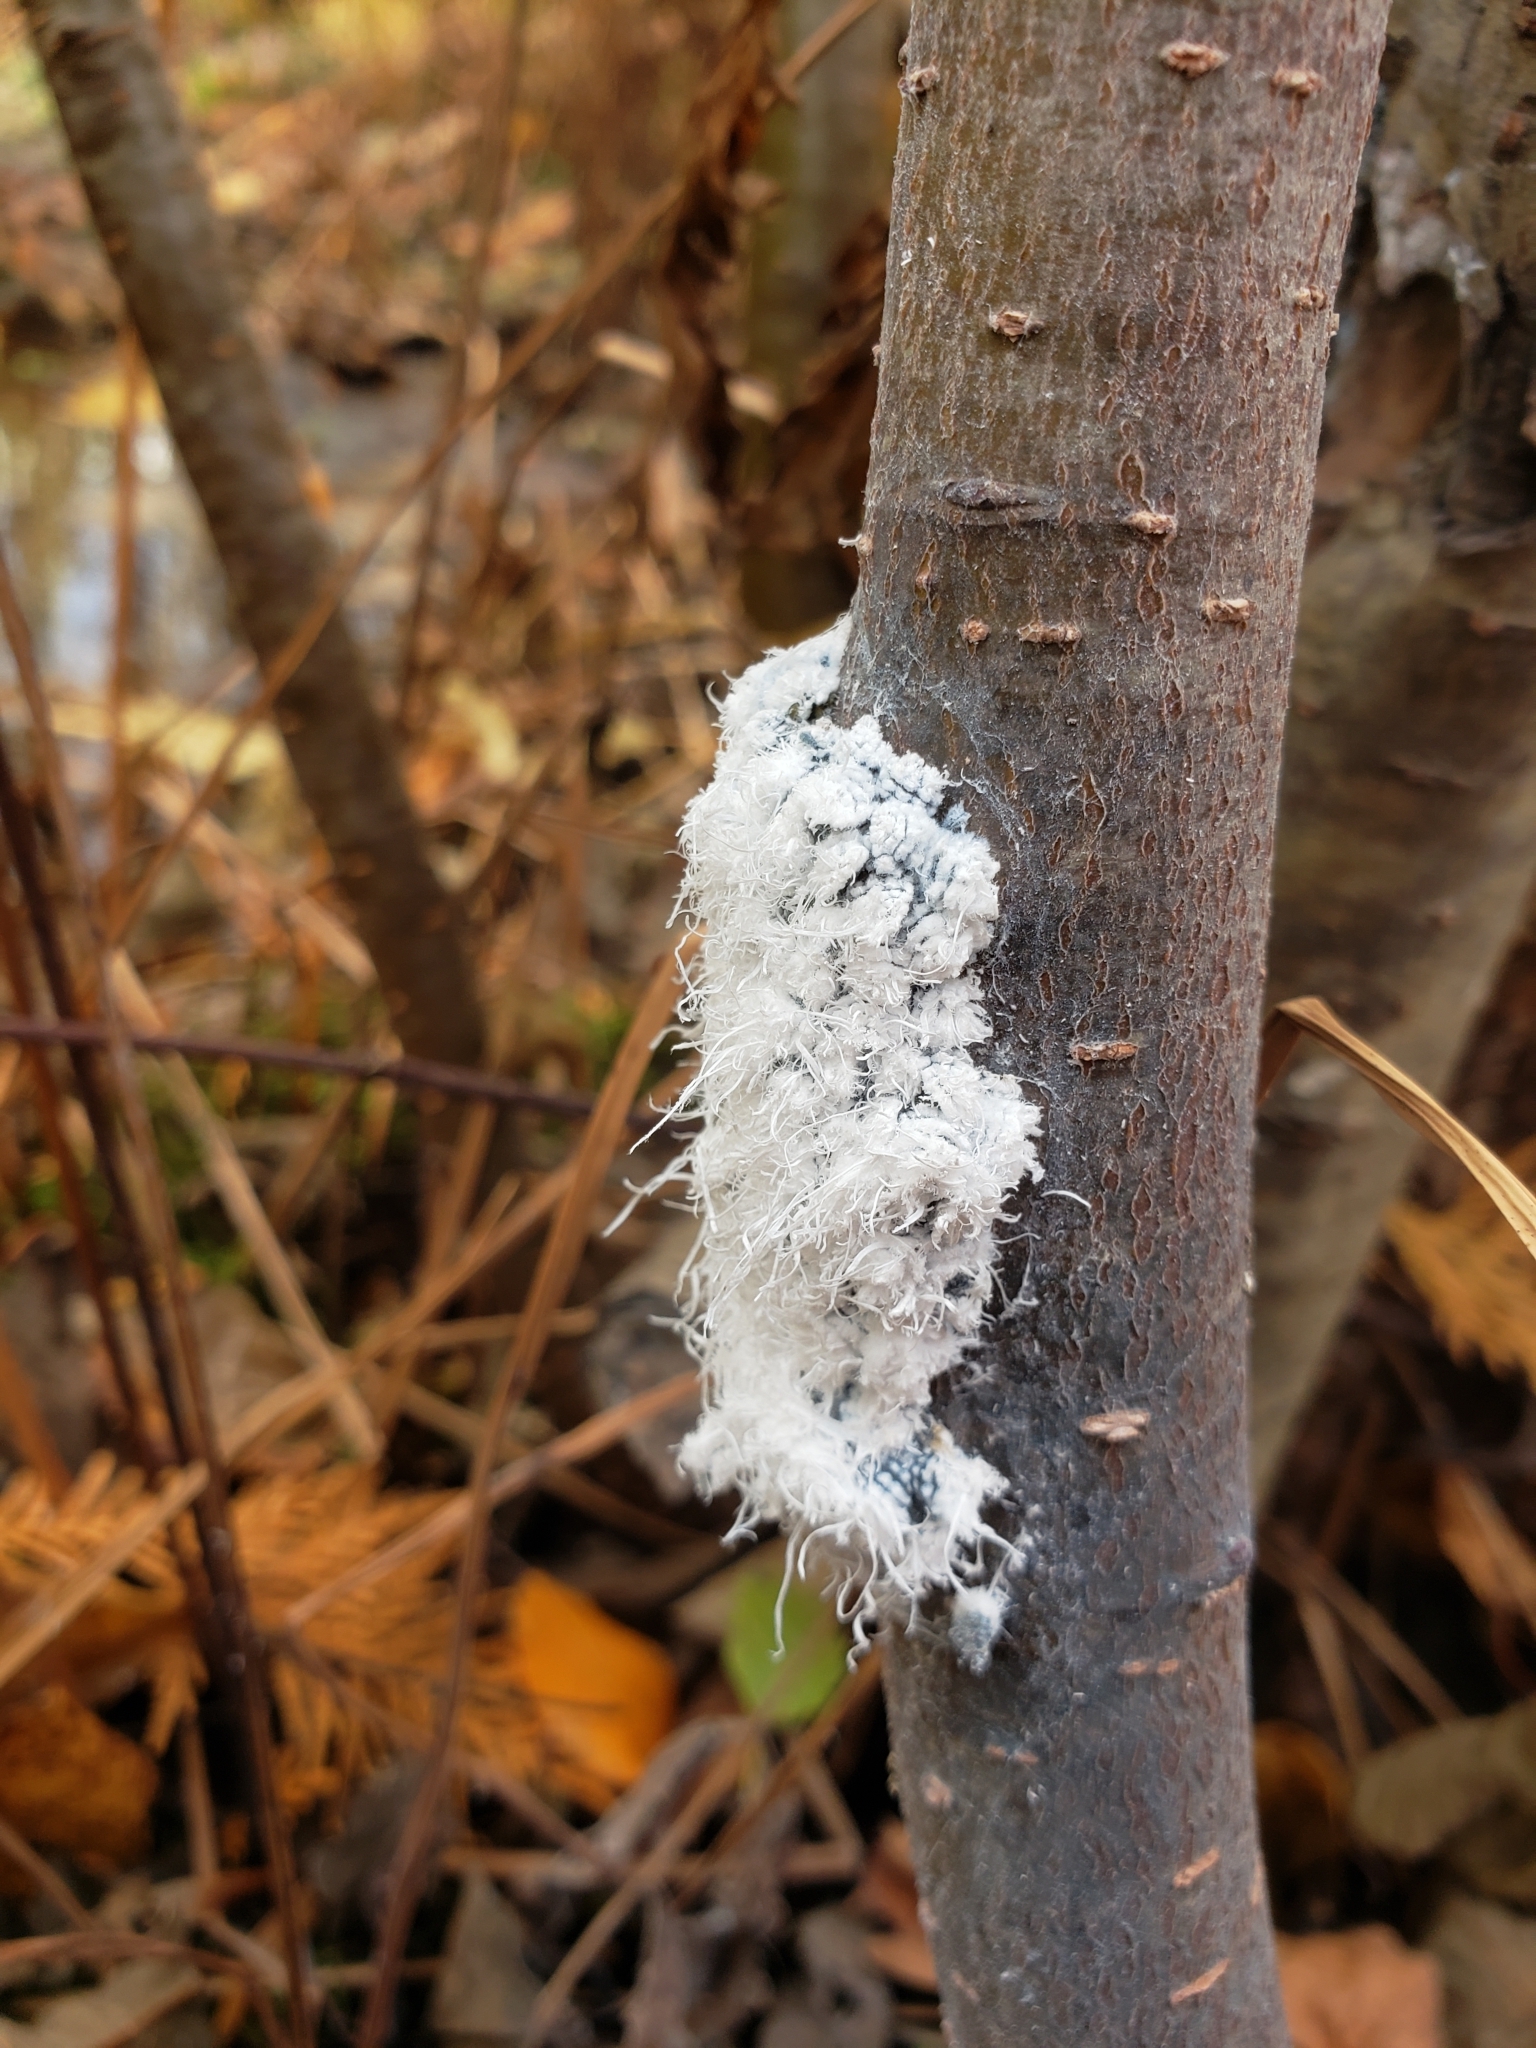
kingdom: Animalia
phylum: Arthropoda
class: Insecta
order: Hemiptera
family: Aphididae
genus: Prociphilus
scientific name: Prociphilus tessellatus
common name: Woolly alder aphid
